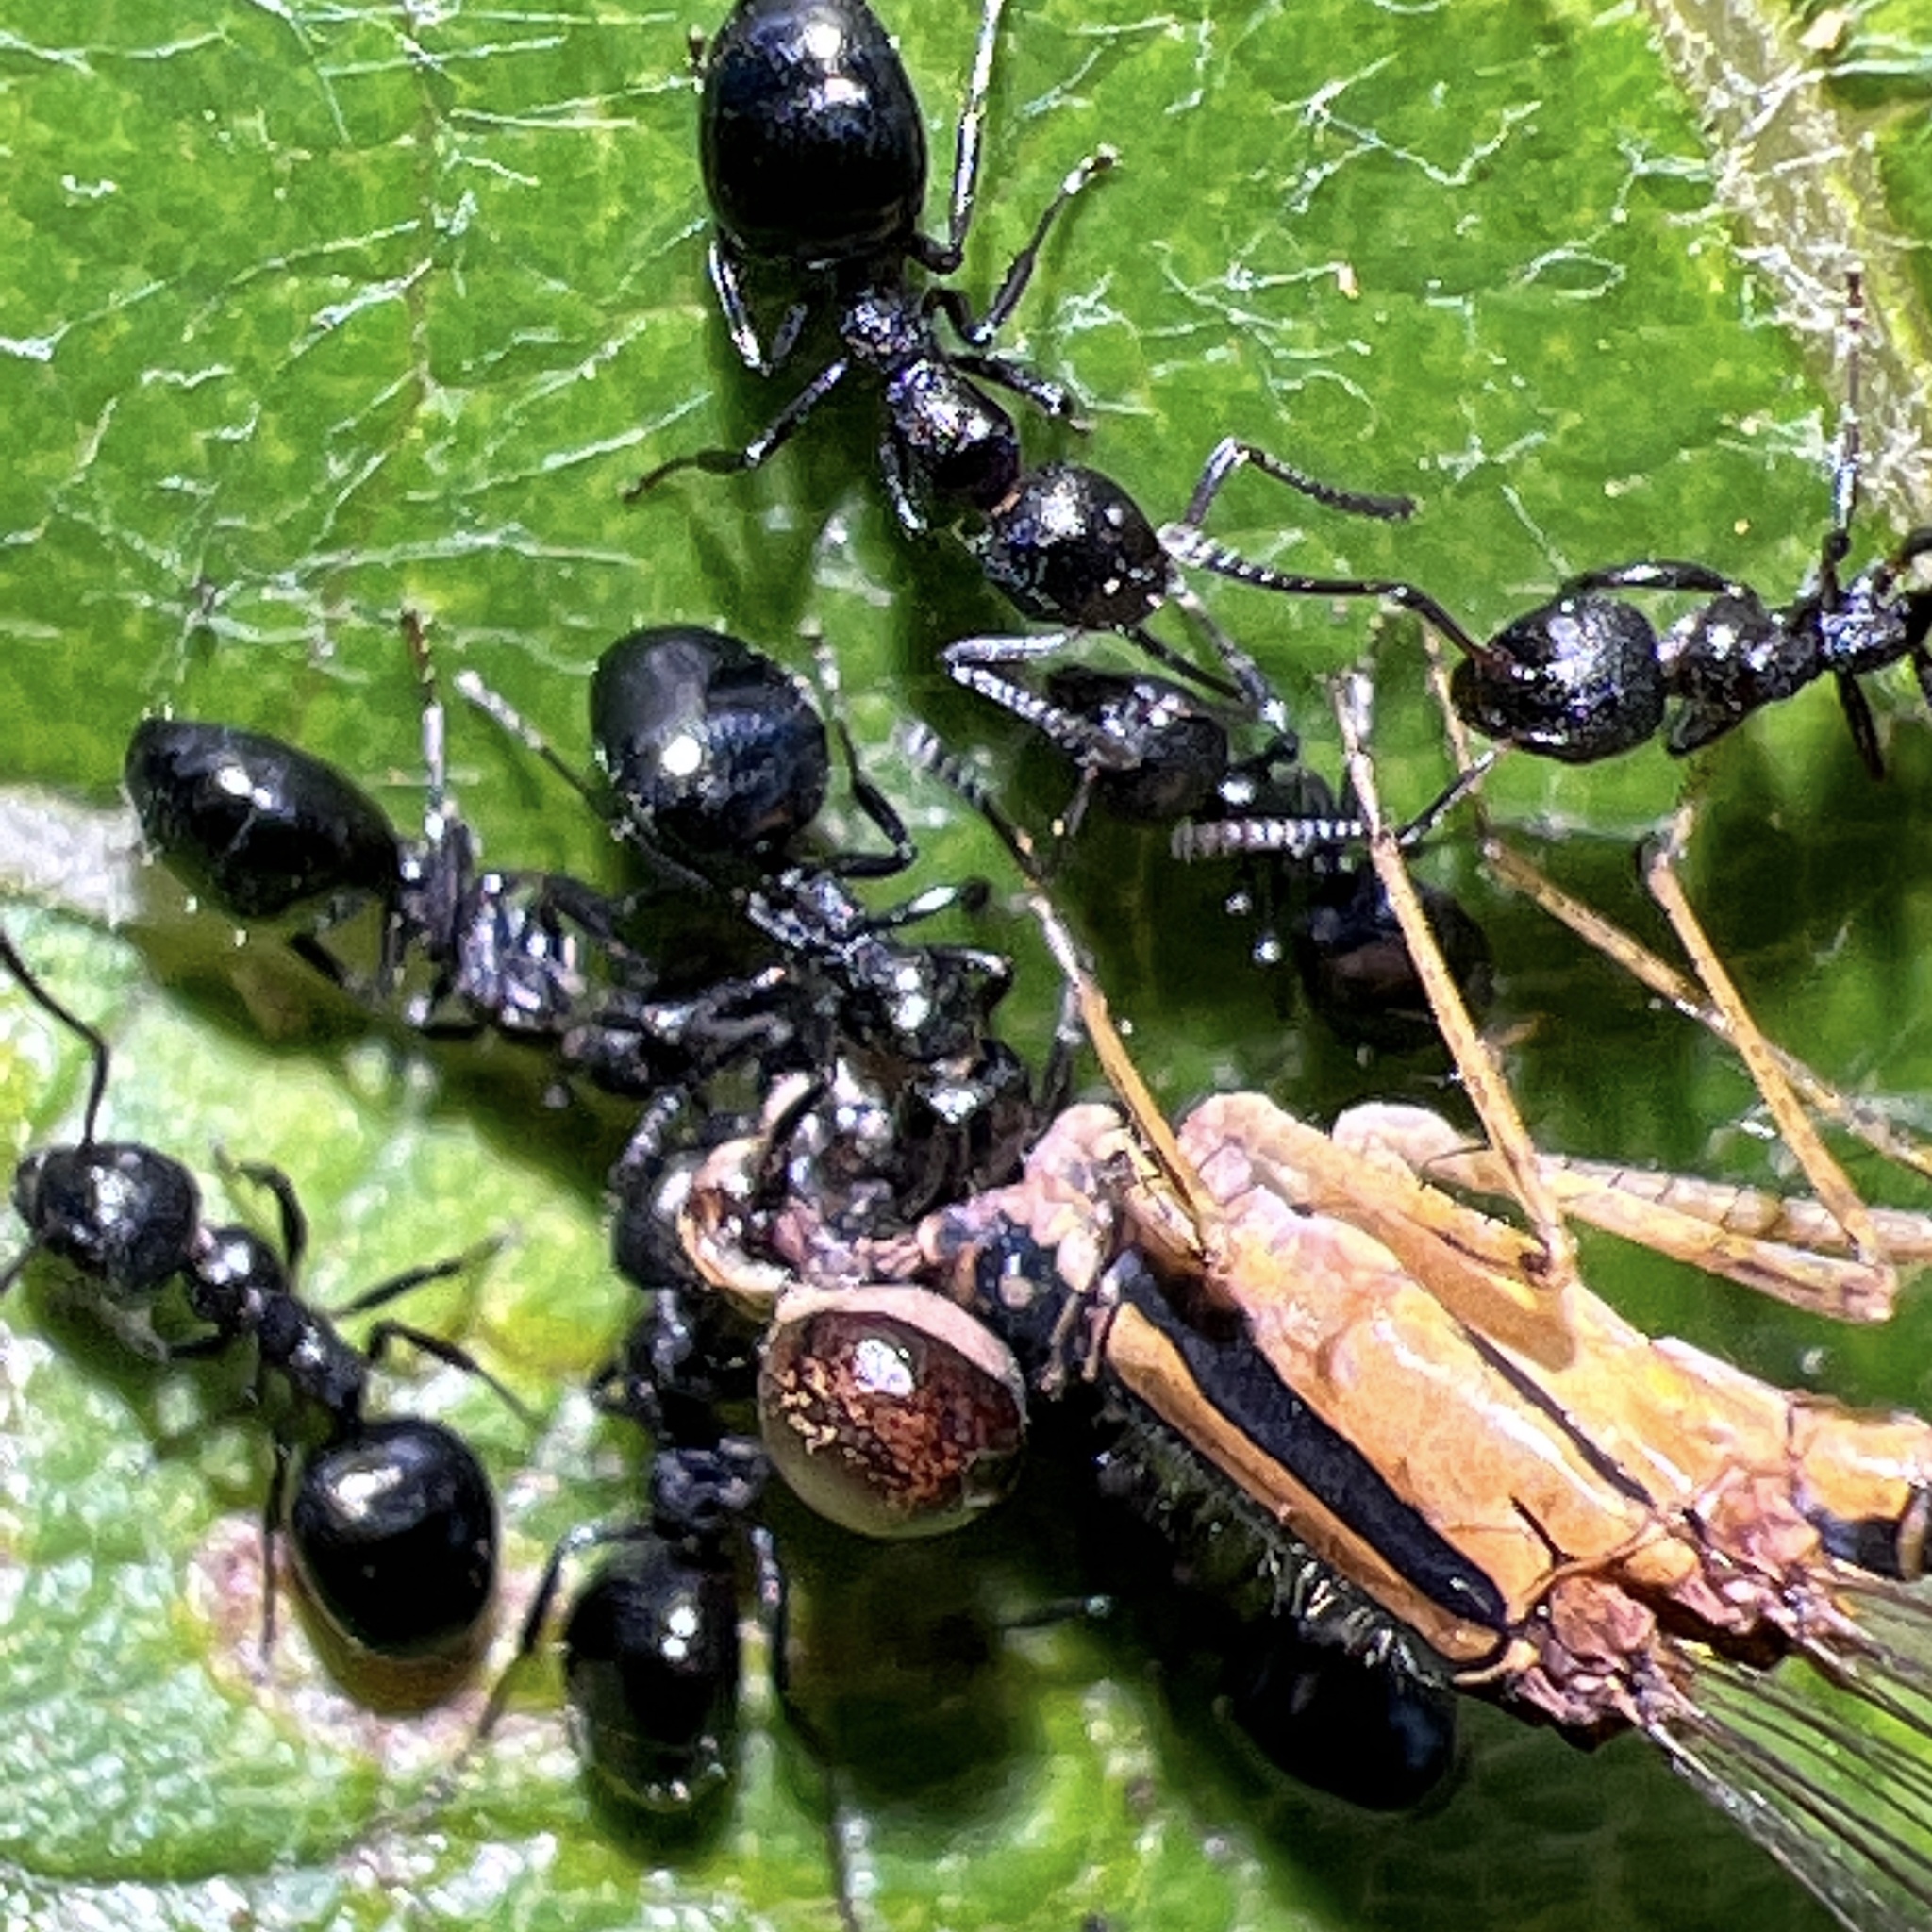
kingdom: Animalia
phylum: Arthropoda
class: Insecta
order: Hymenoptera
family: Formicidae
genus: Dolichoderus
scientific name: Dolichoderus taschenbergi
